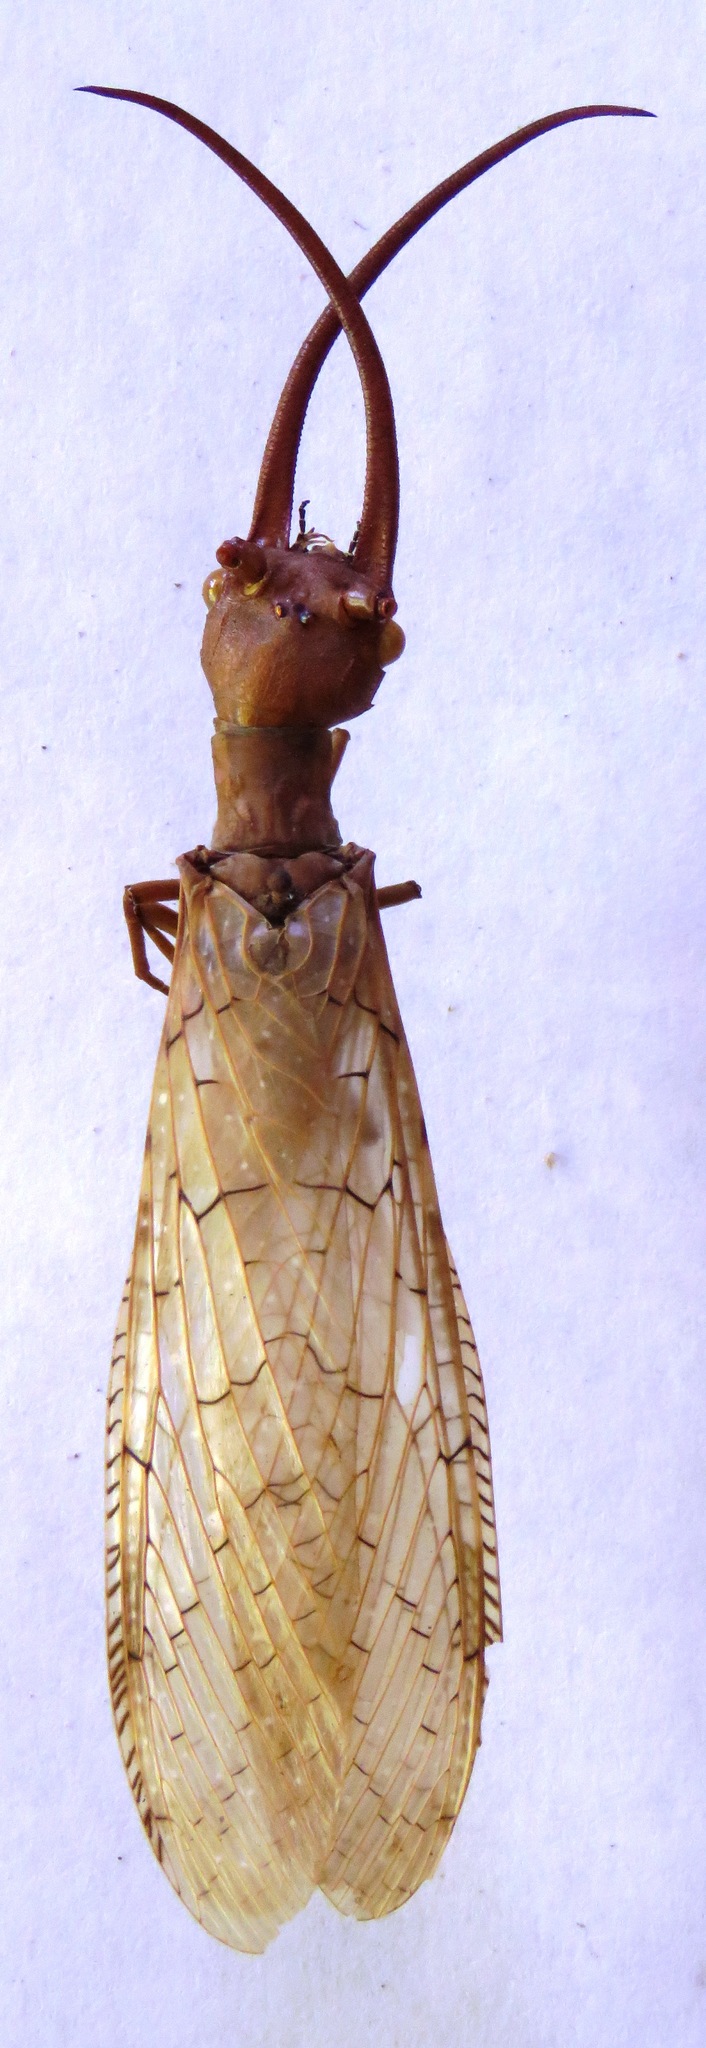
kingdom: Animalia
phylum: Arthropoda
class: Insecta
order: Megaloptera
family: Corydalidae
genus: Corydalus
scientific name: Corydalus luteus
